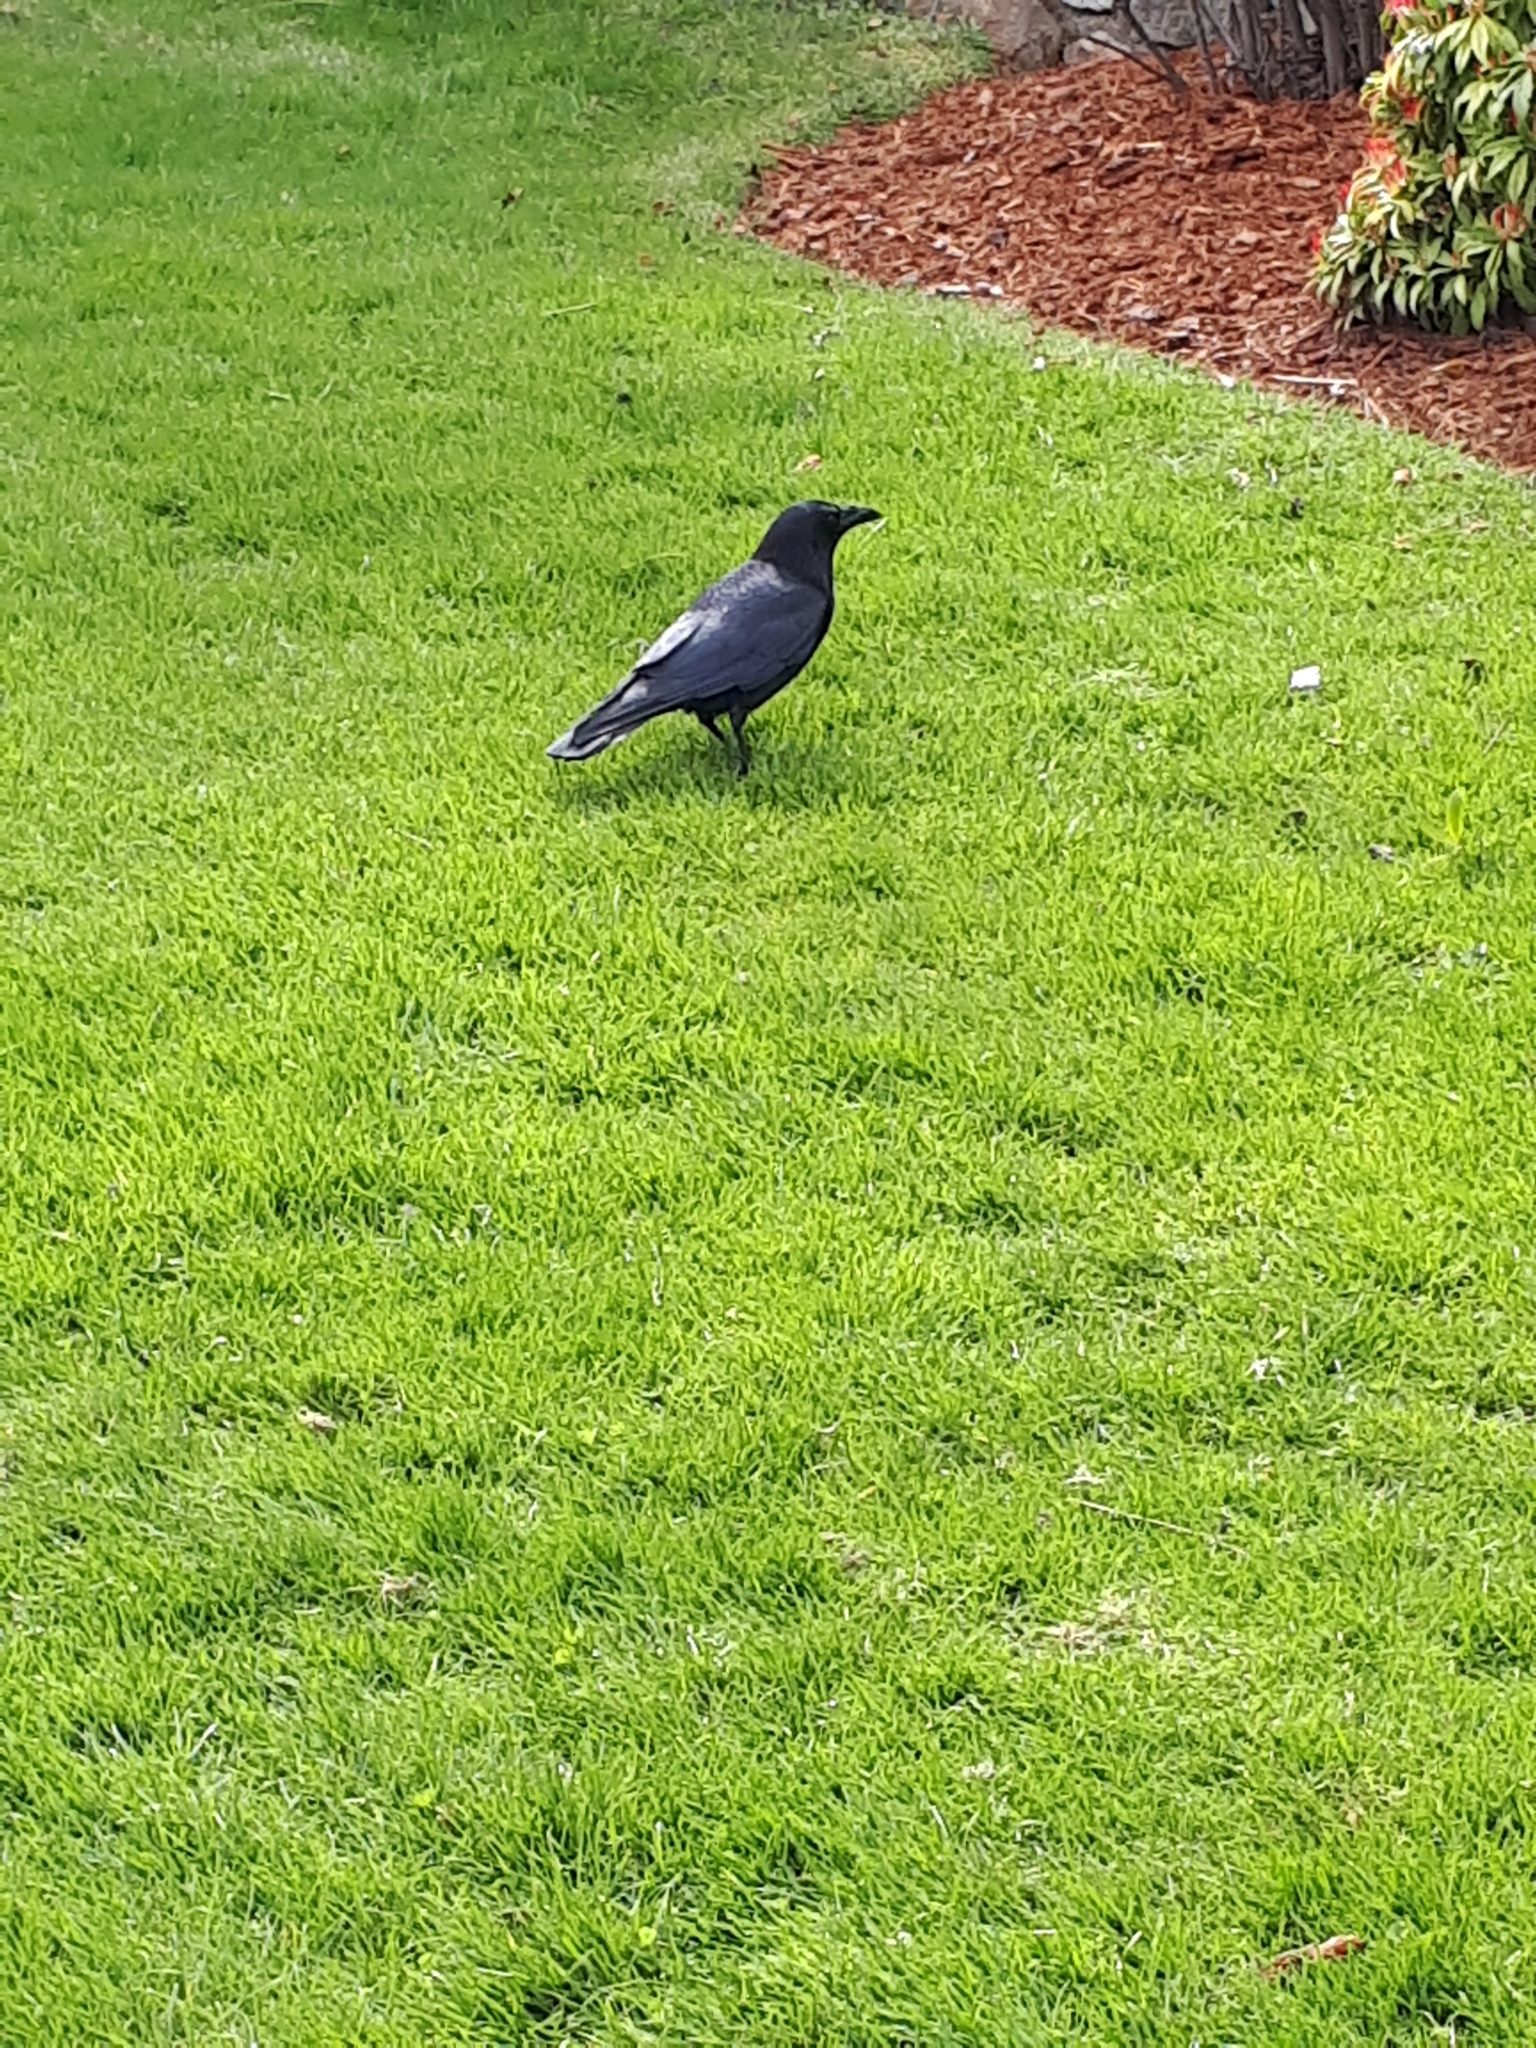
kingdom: Animalia
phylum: Chordata
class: Aves
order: Passeriformes
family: Corvidae
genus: Corvus
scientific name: Corvus brachyrhynchos
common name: American crow
